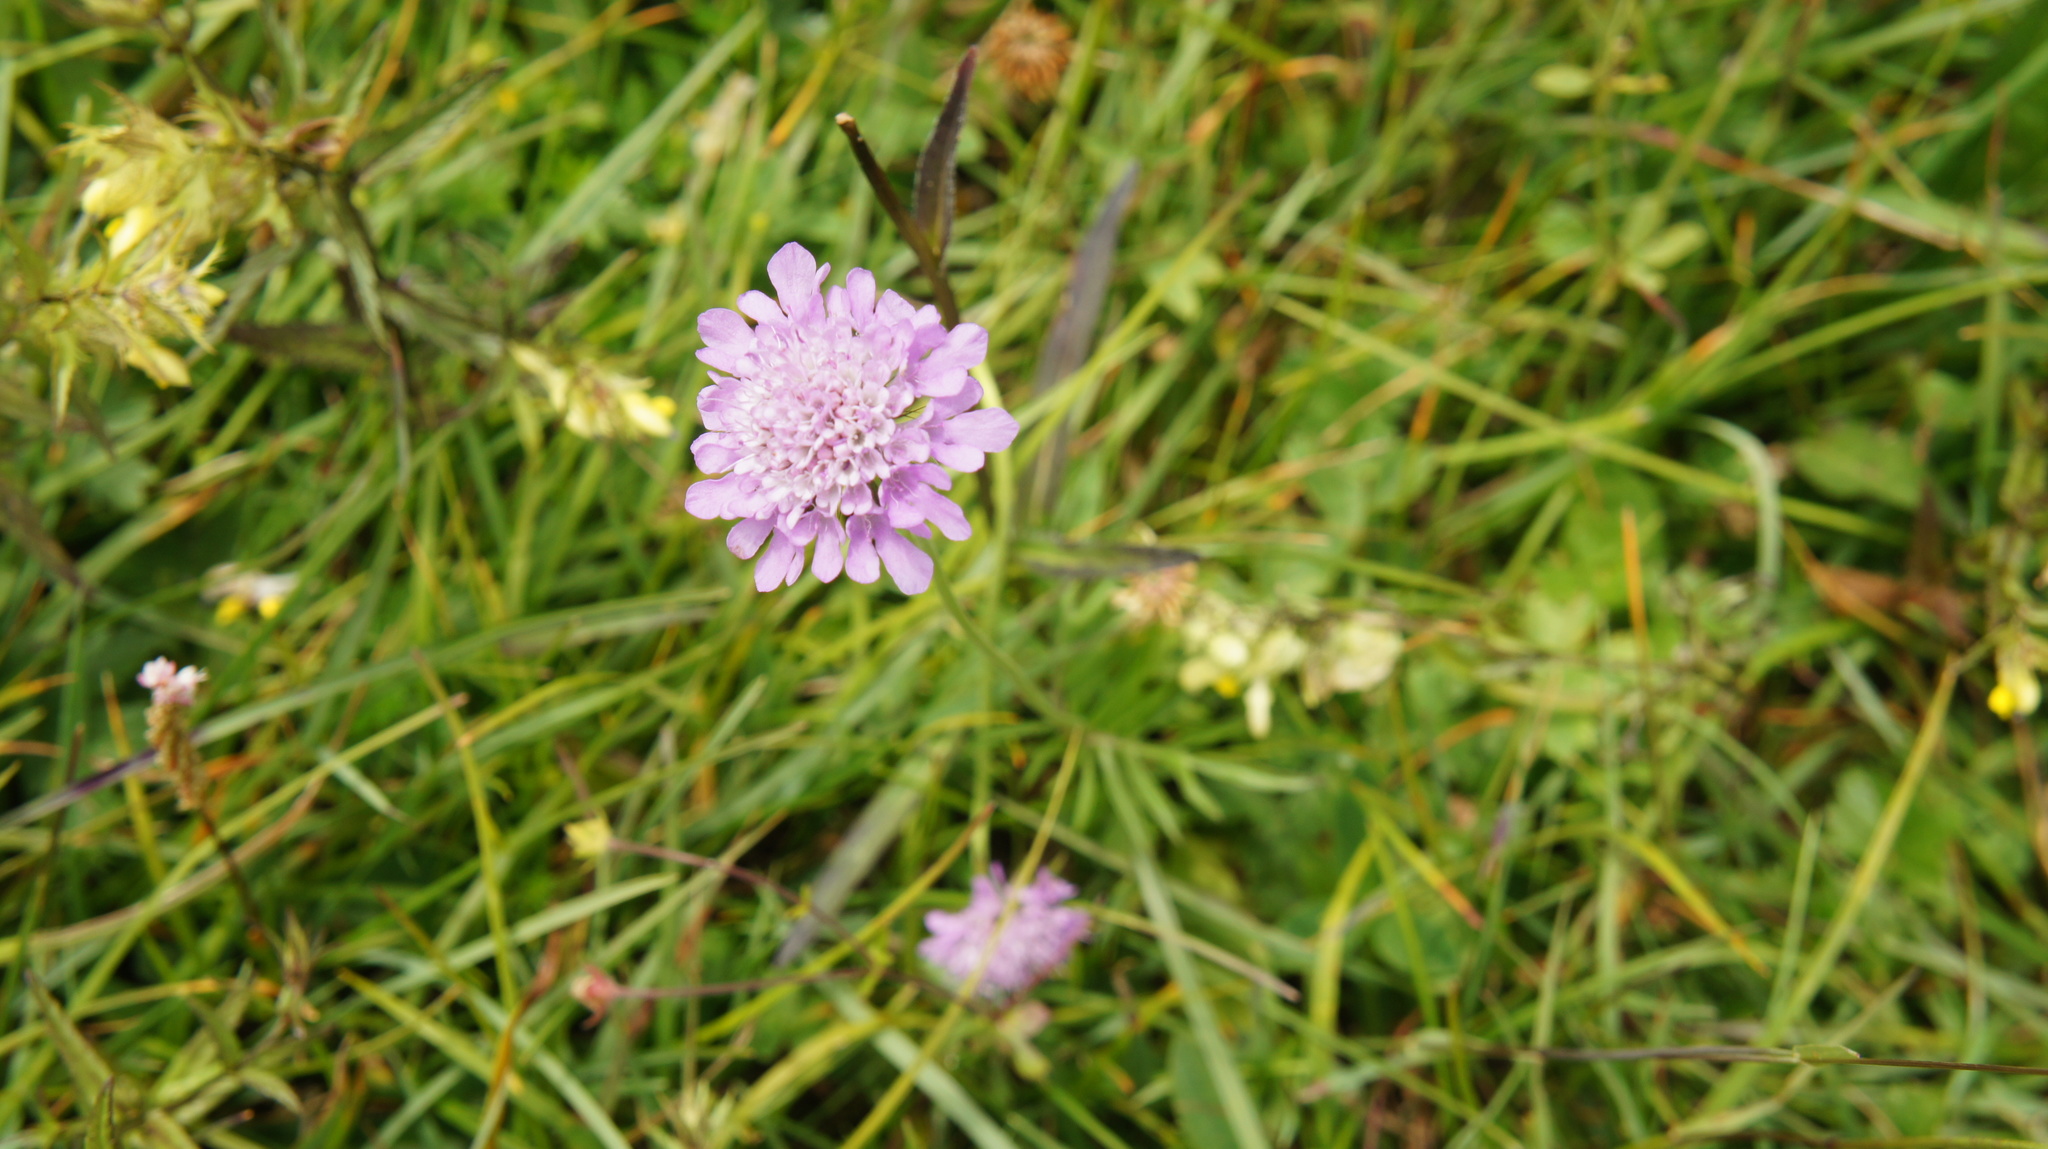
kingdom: Plantae
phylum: Tracheophyta
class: Magnoliopsida
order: Dipsacales
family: Caprifoliaceae
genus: Scabiosa
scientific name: Scabiosa lucida
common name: Shining scabious
